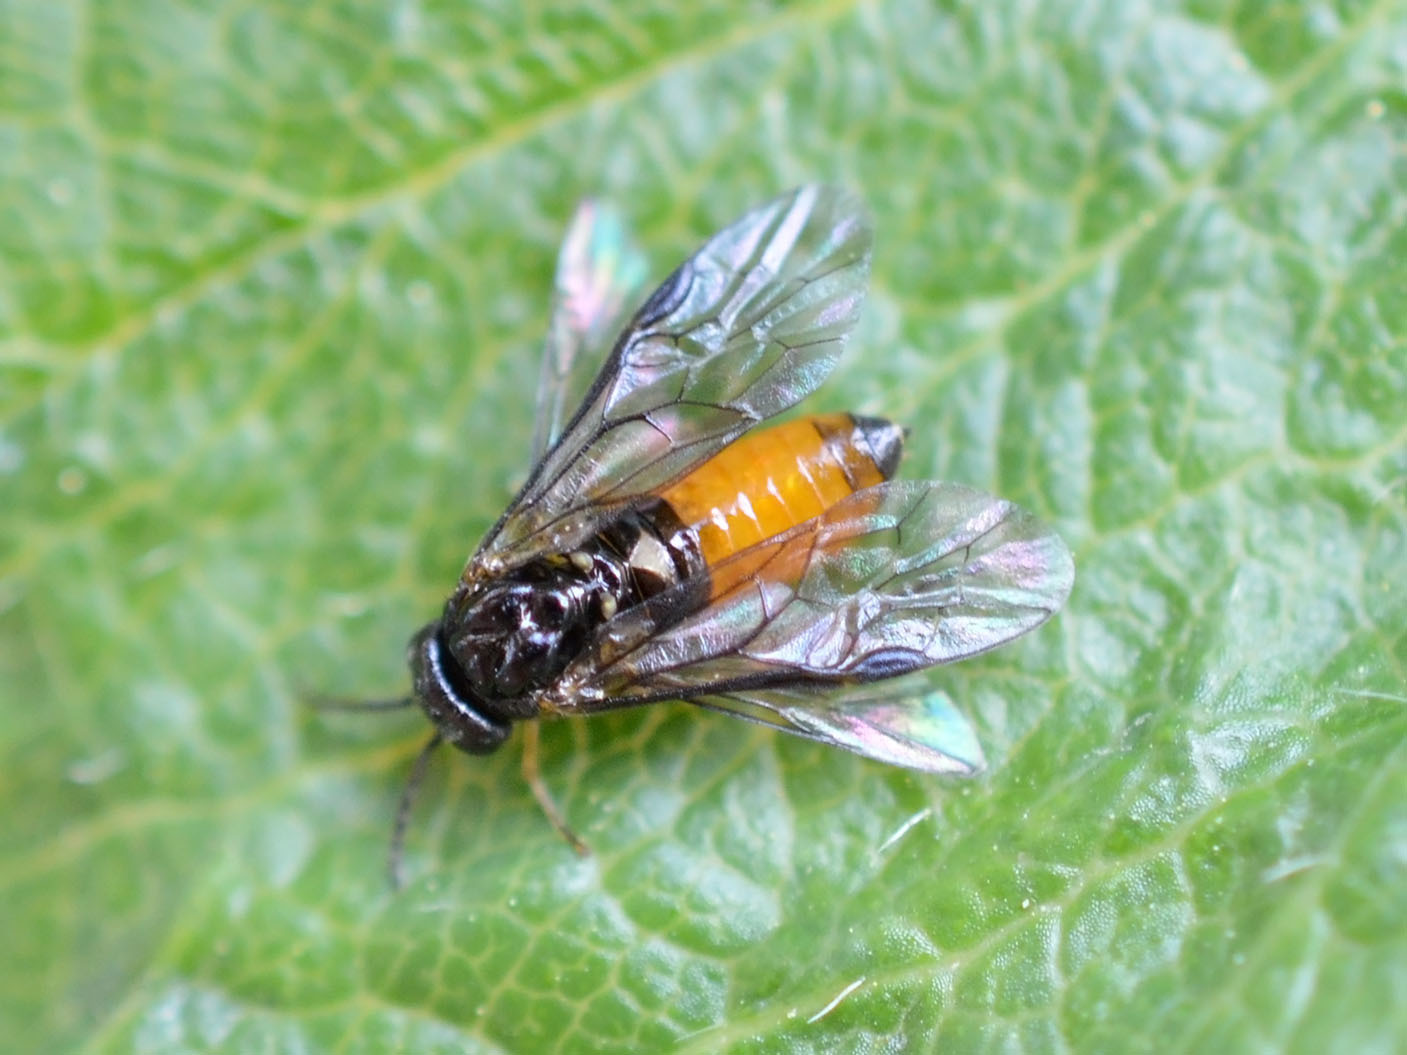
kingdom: Animalia
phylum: Arthropoda
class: Insecta
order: Hymenoptera
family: Tenthredinidae
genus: Halidamia
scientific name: Halidamia affinis
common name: Wasp
